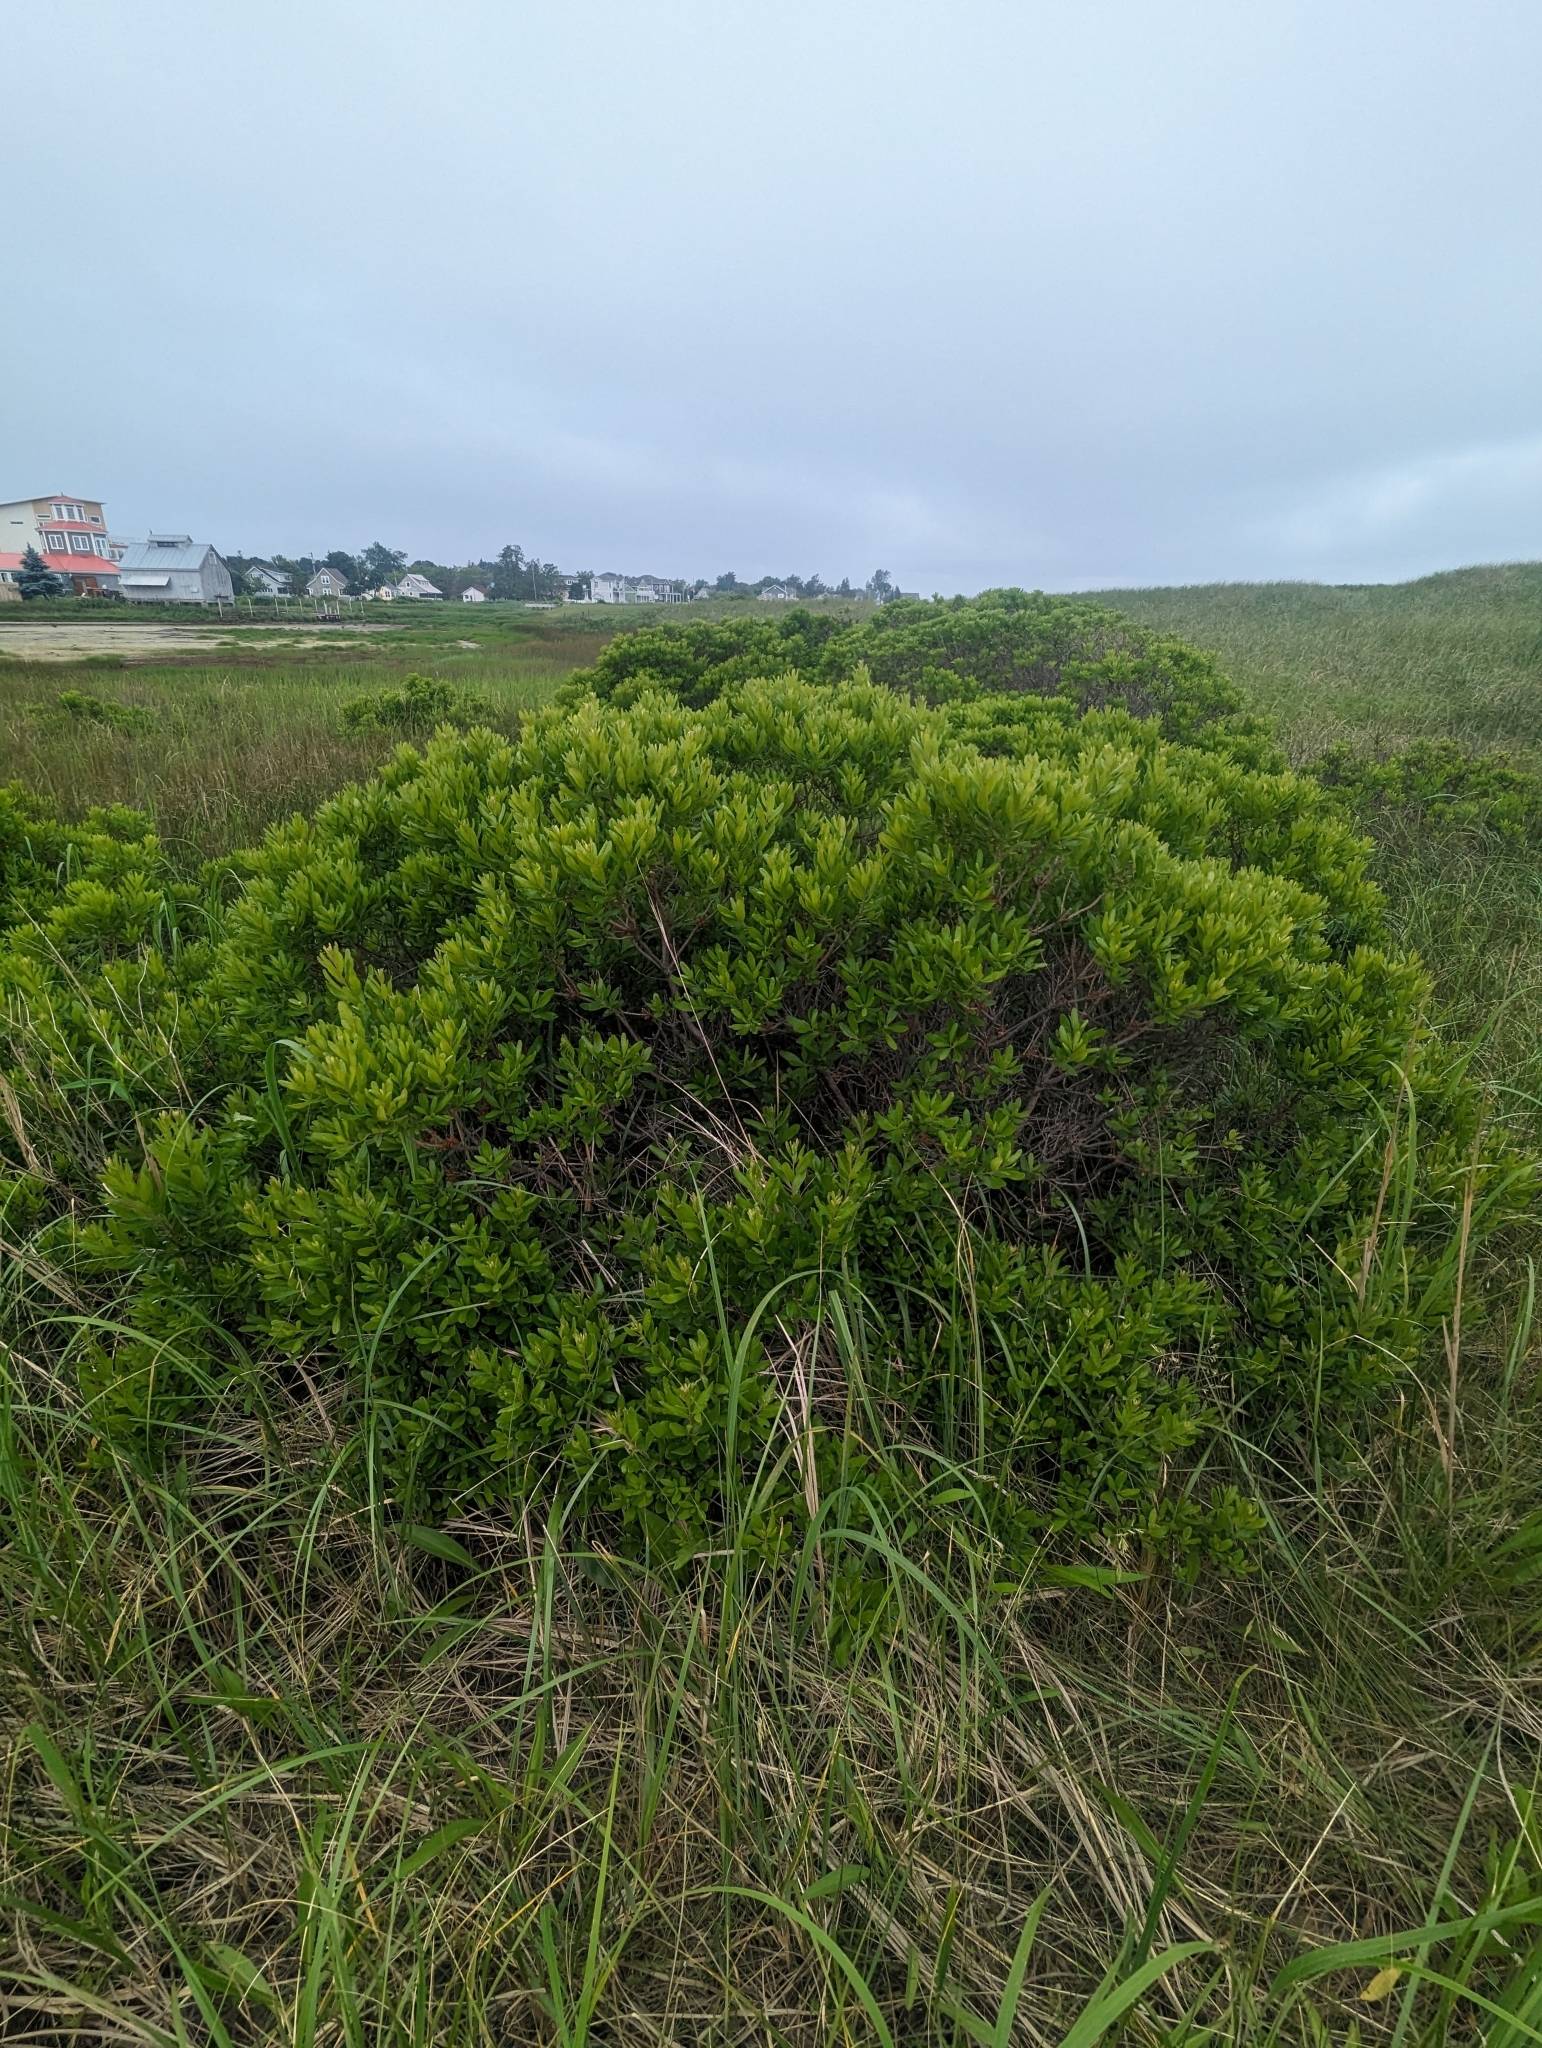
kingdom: Plantae
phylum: Tracheophyta
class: Magnoliopsida
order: Fagales
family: Myricaceae
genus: Morella
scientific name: Morella pensylvanica
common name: Northern bayberry
